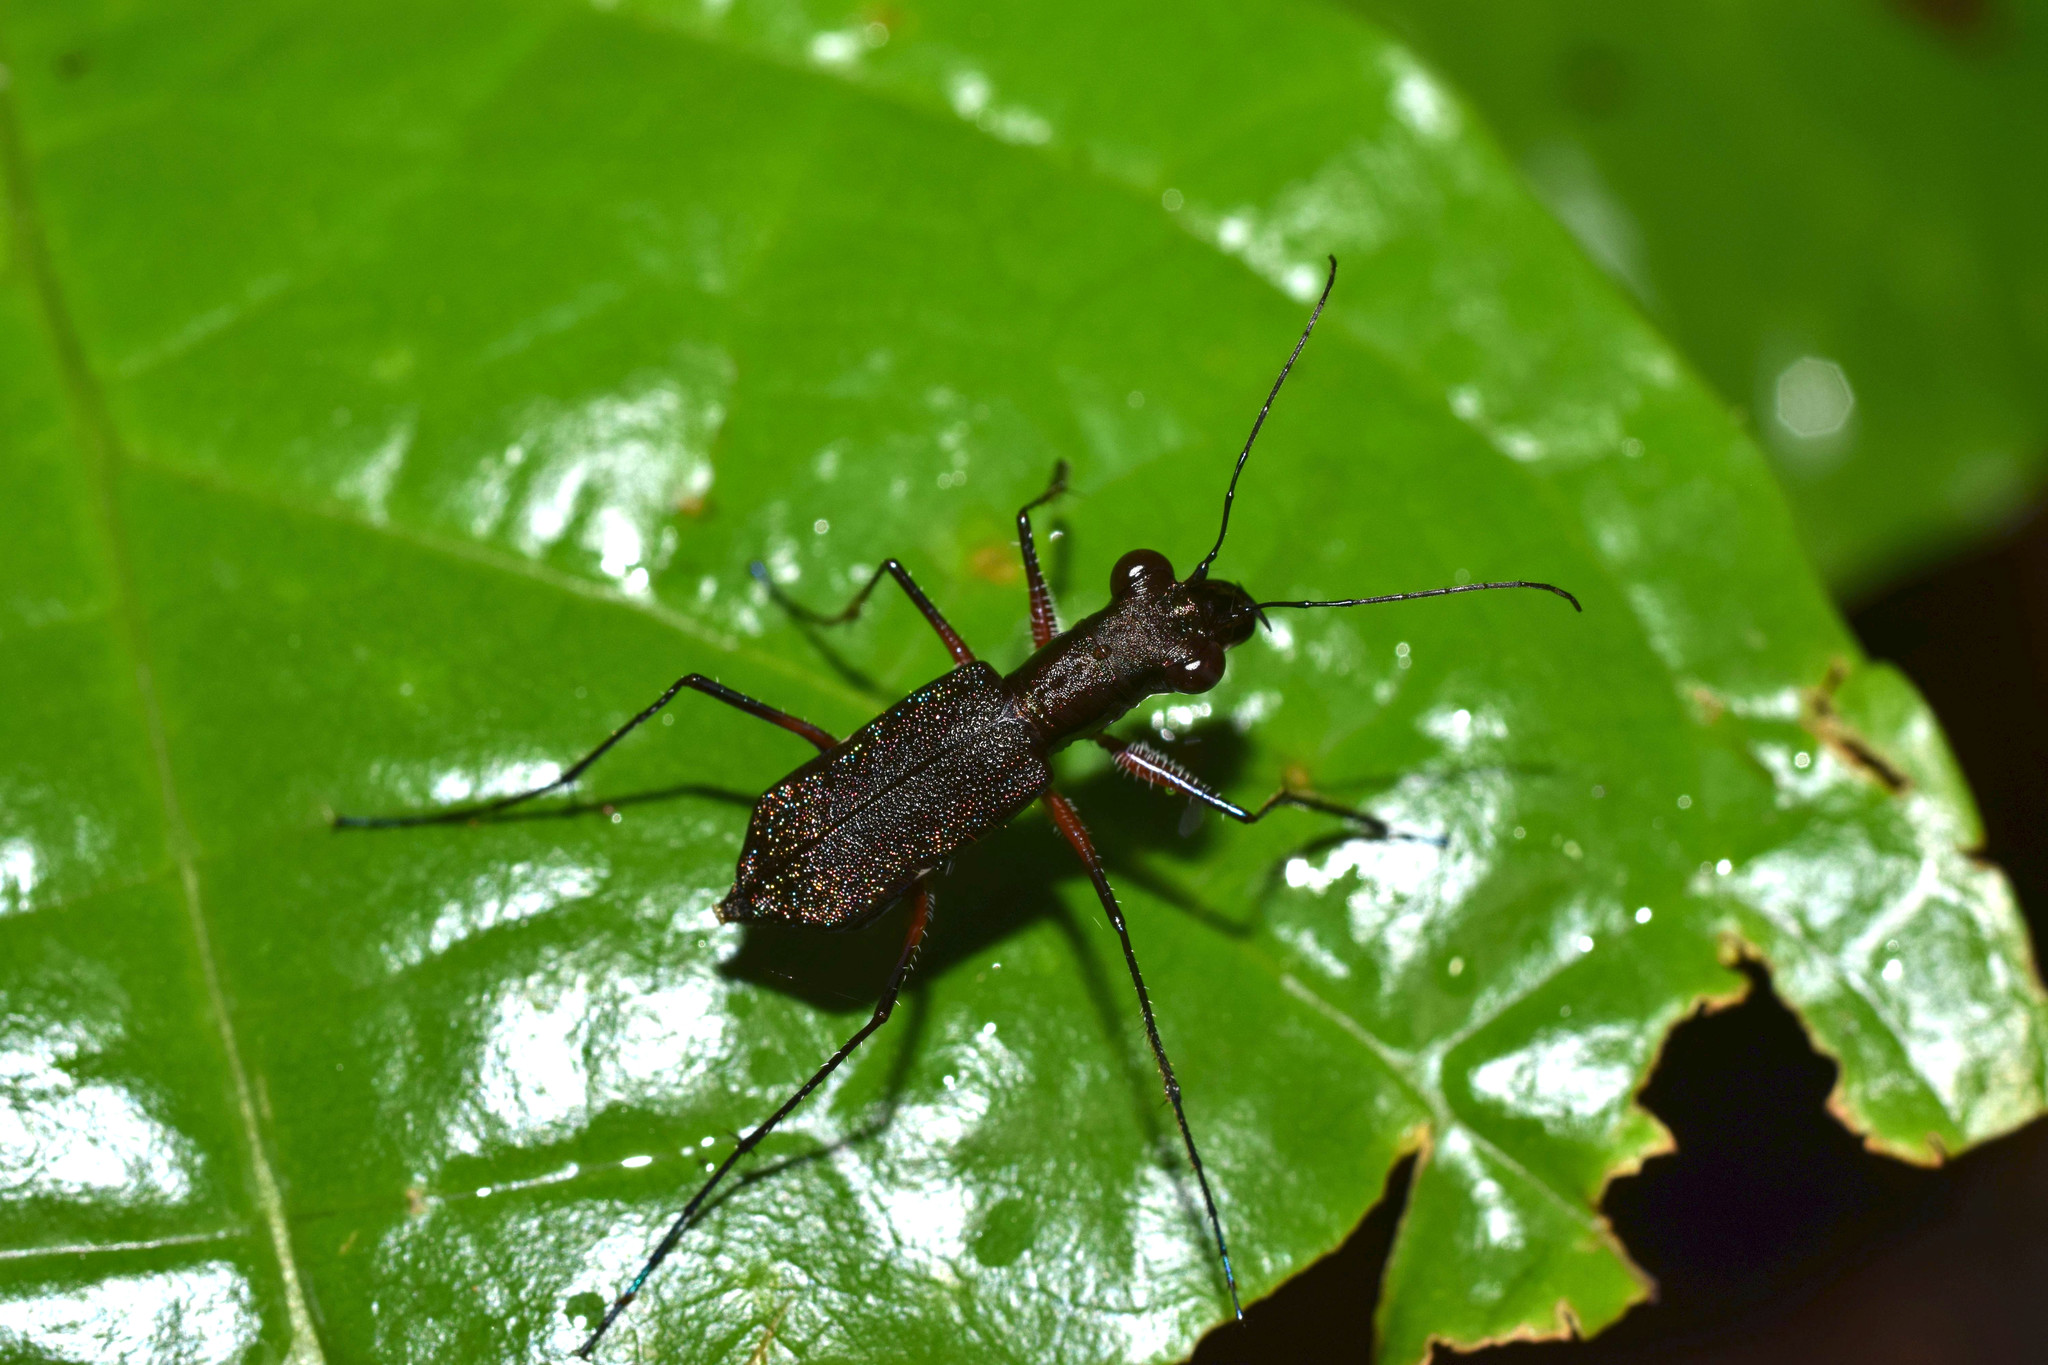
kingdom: Animalia
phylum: Arthropoda
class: Insecta
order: Coleoptera
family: Carabidae
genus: Odontocheila
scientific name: Odontocheila nicaraguensis
